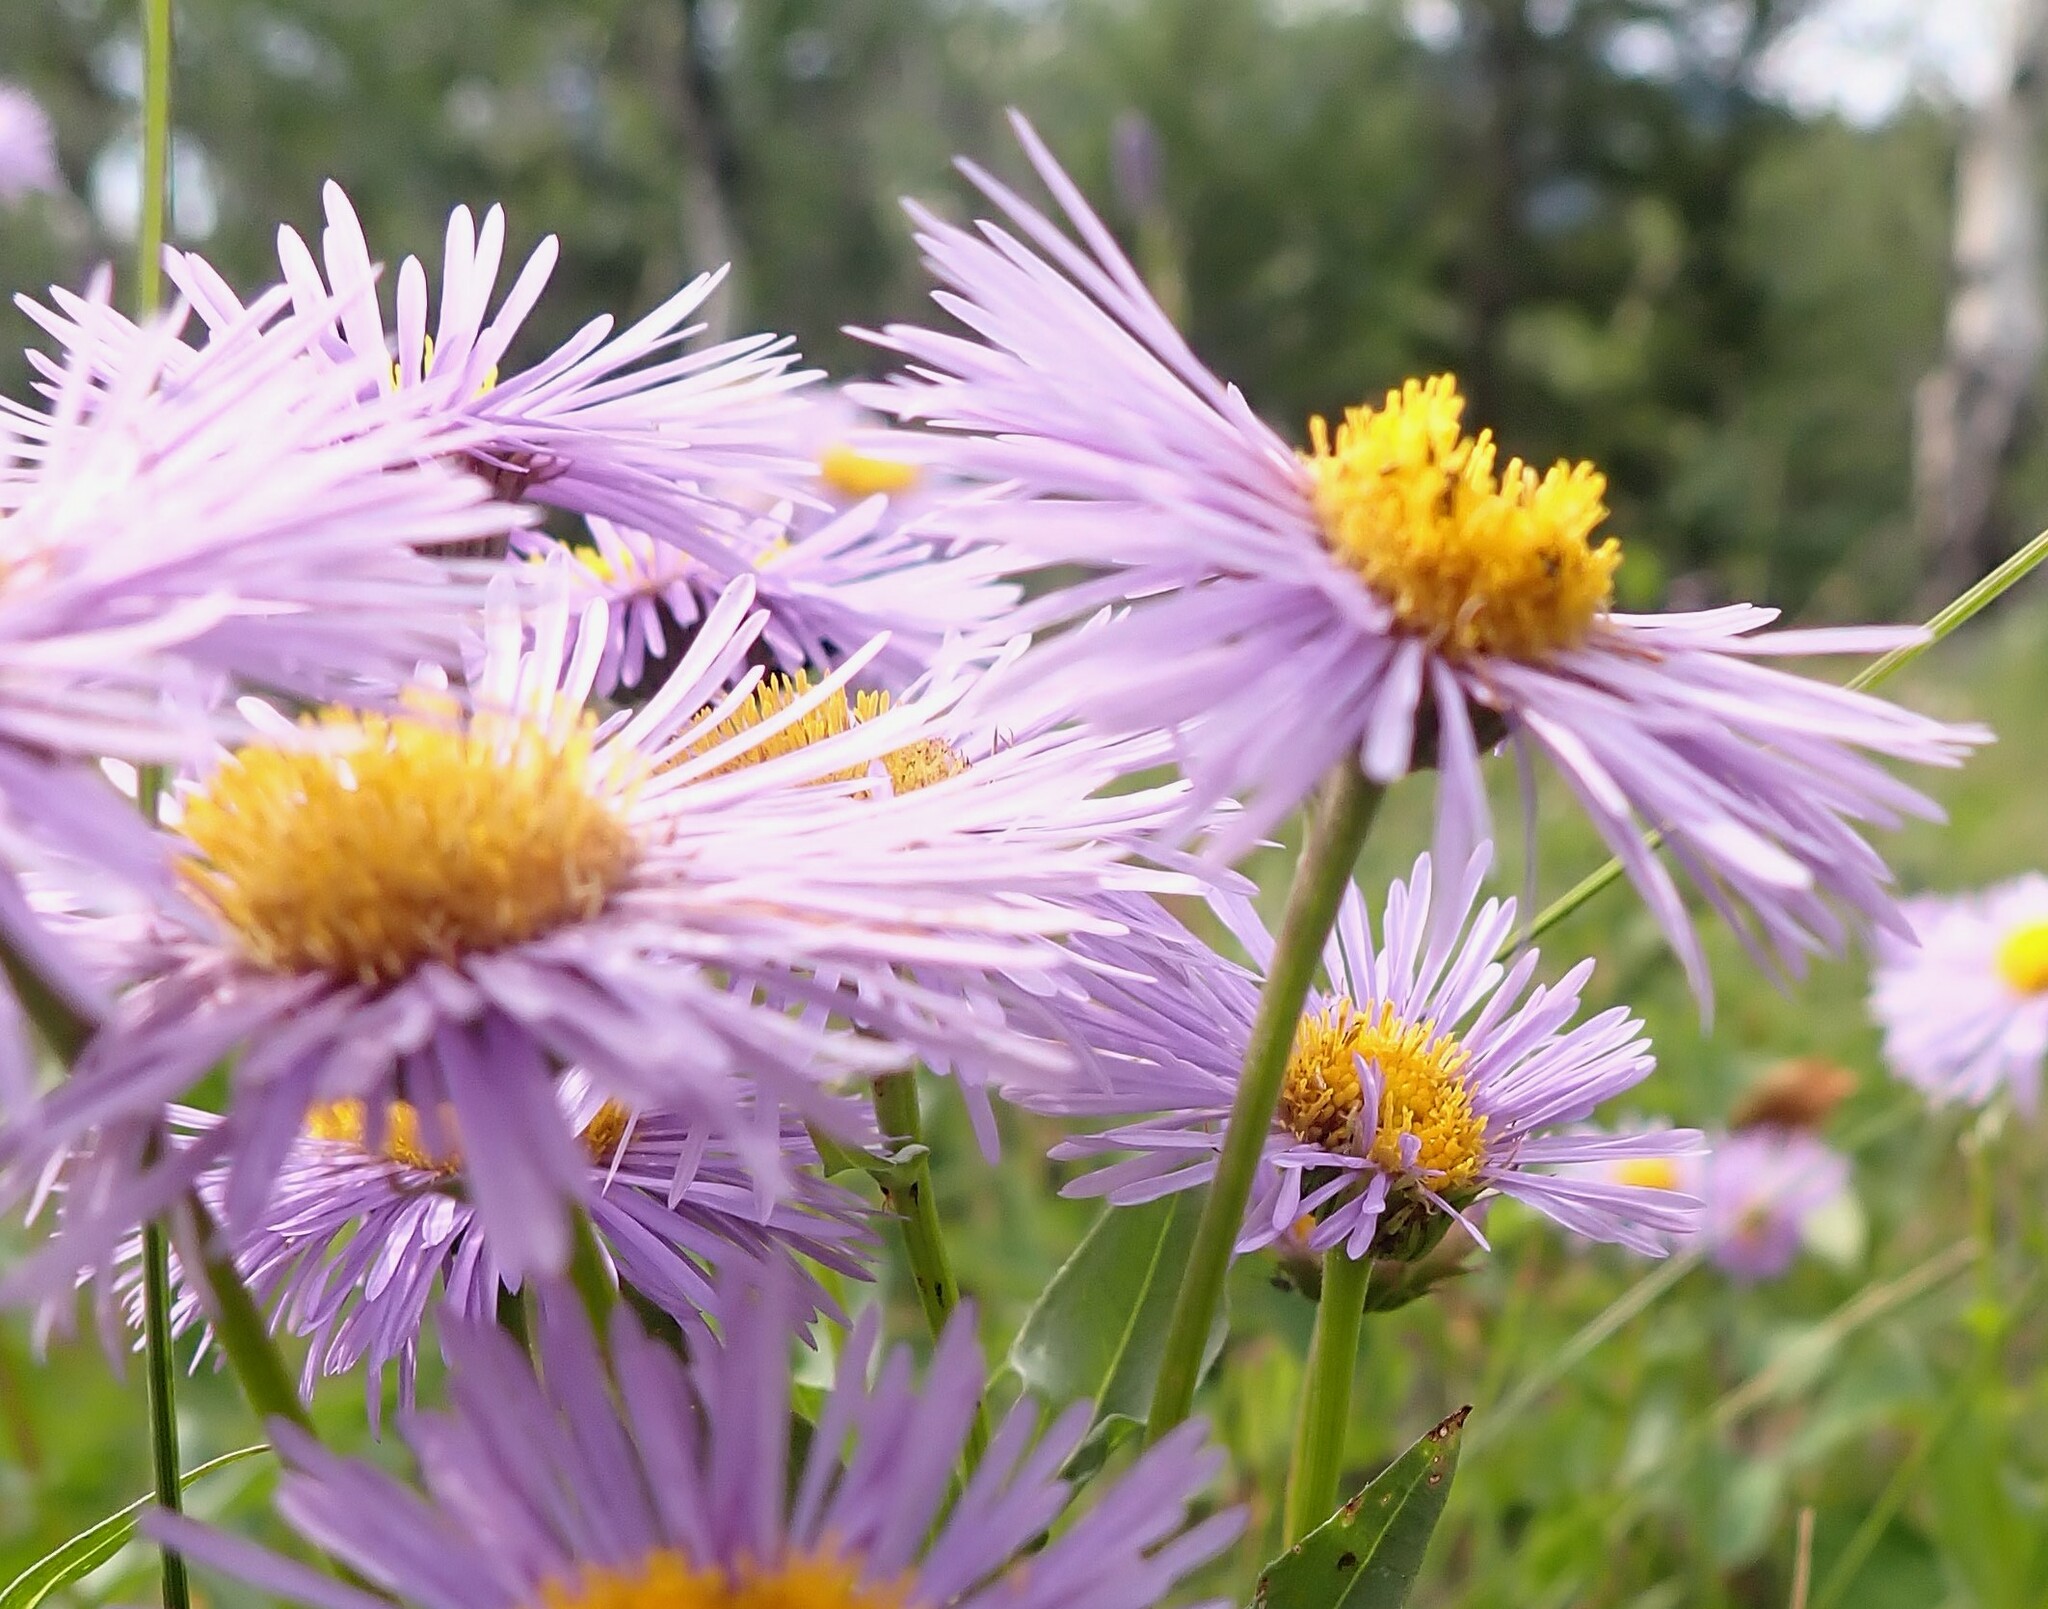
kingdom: Plantae
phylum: Tracheophyta
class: Magnoliopsida
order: Asterales
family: Asteraceae
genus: Erigeron
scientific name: Erigeron speciosus
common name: Aspen fleabane
